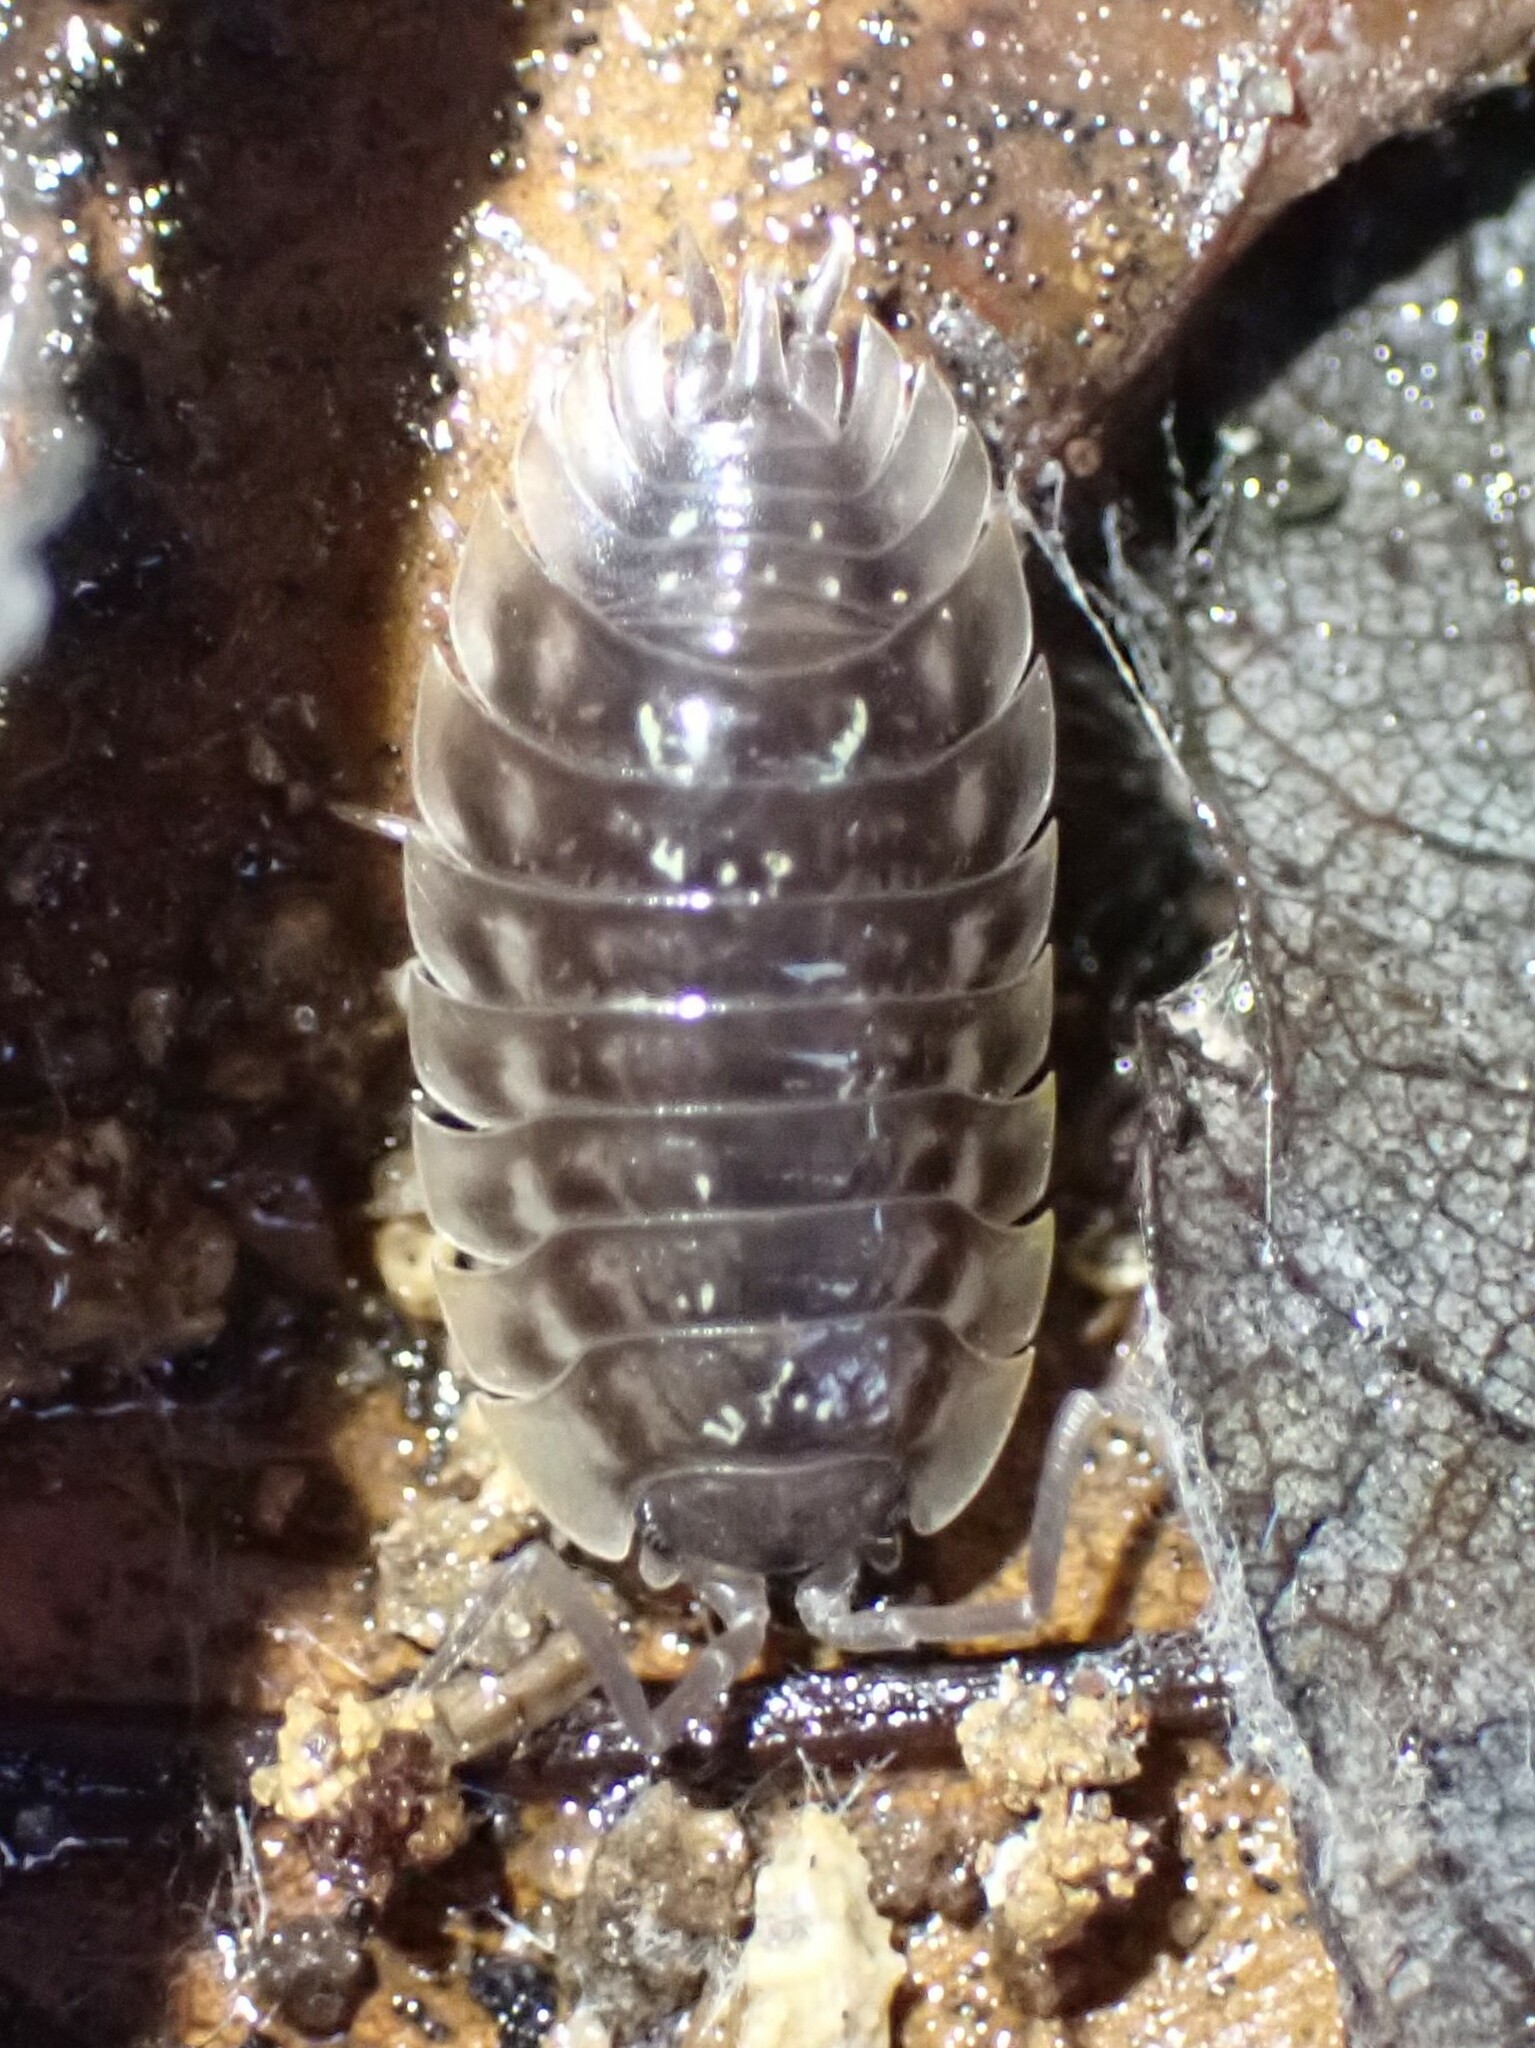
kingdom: Animalia
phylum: Arthropoda
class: Malacostraca
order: Isopoda
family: Oniscidae
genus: Oniscus
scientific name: Oniscus asellus
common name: Common shiny woodlouse
